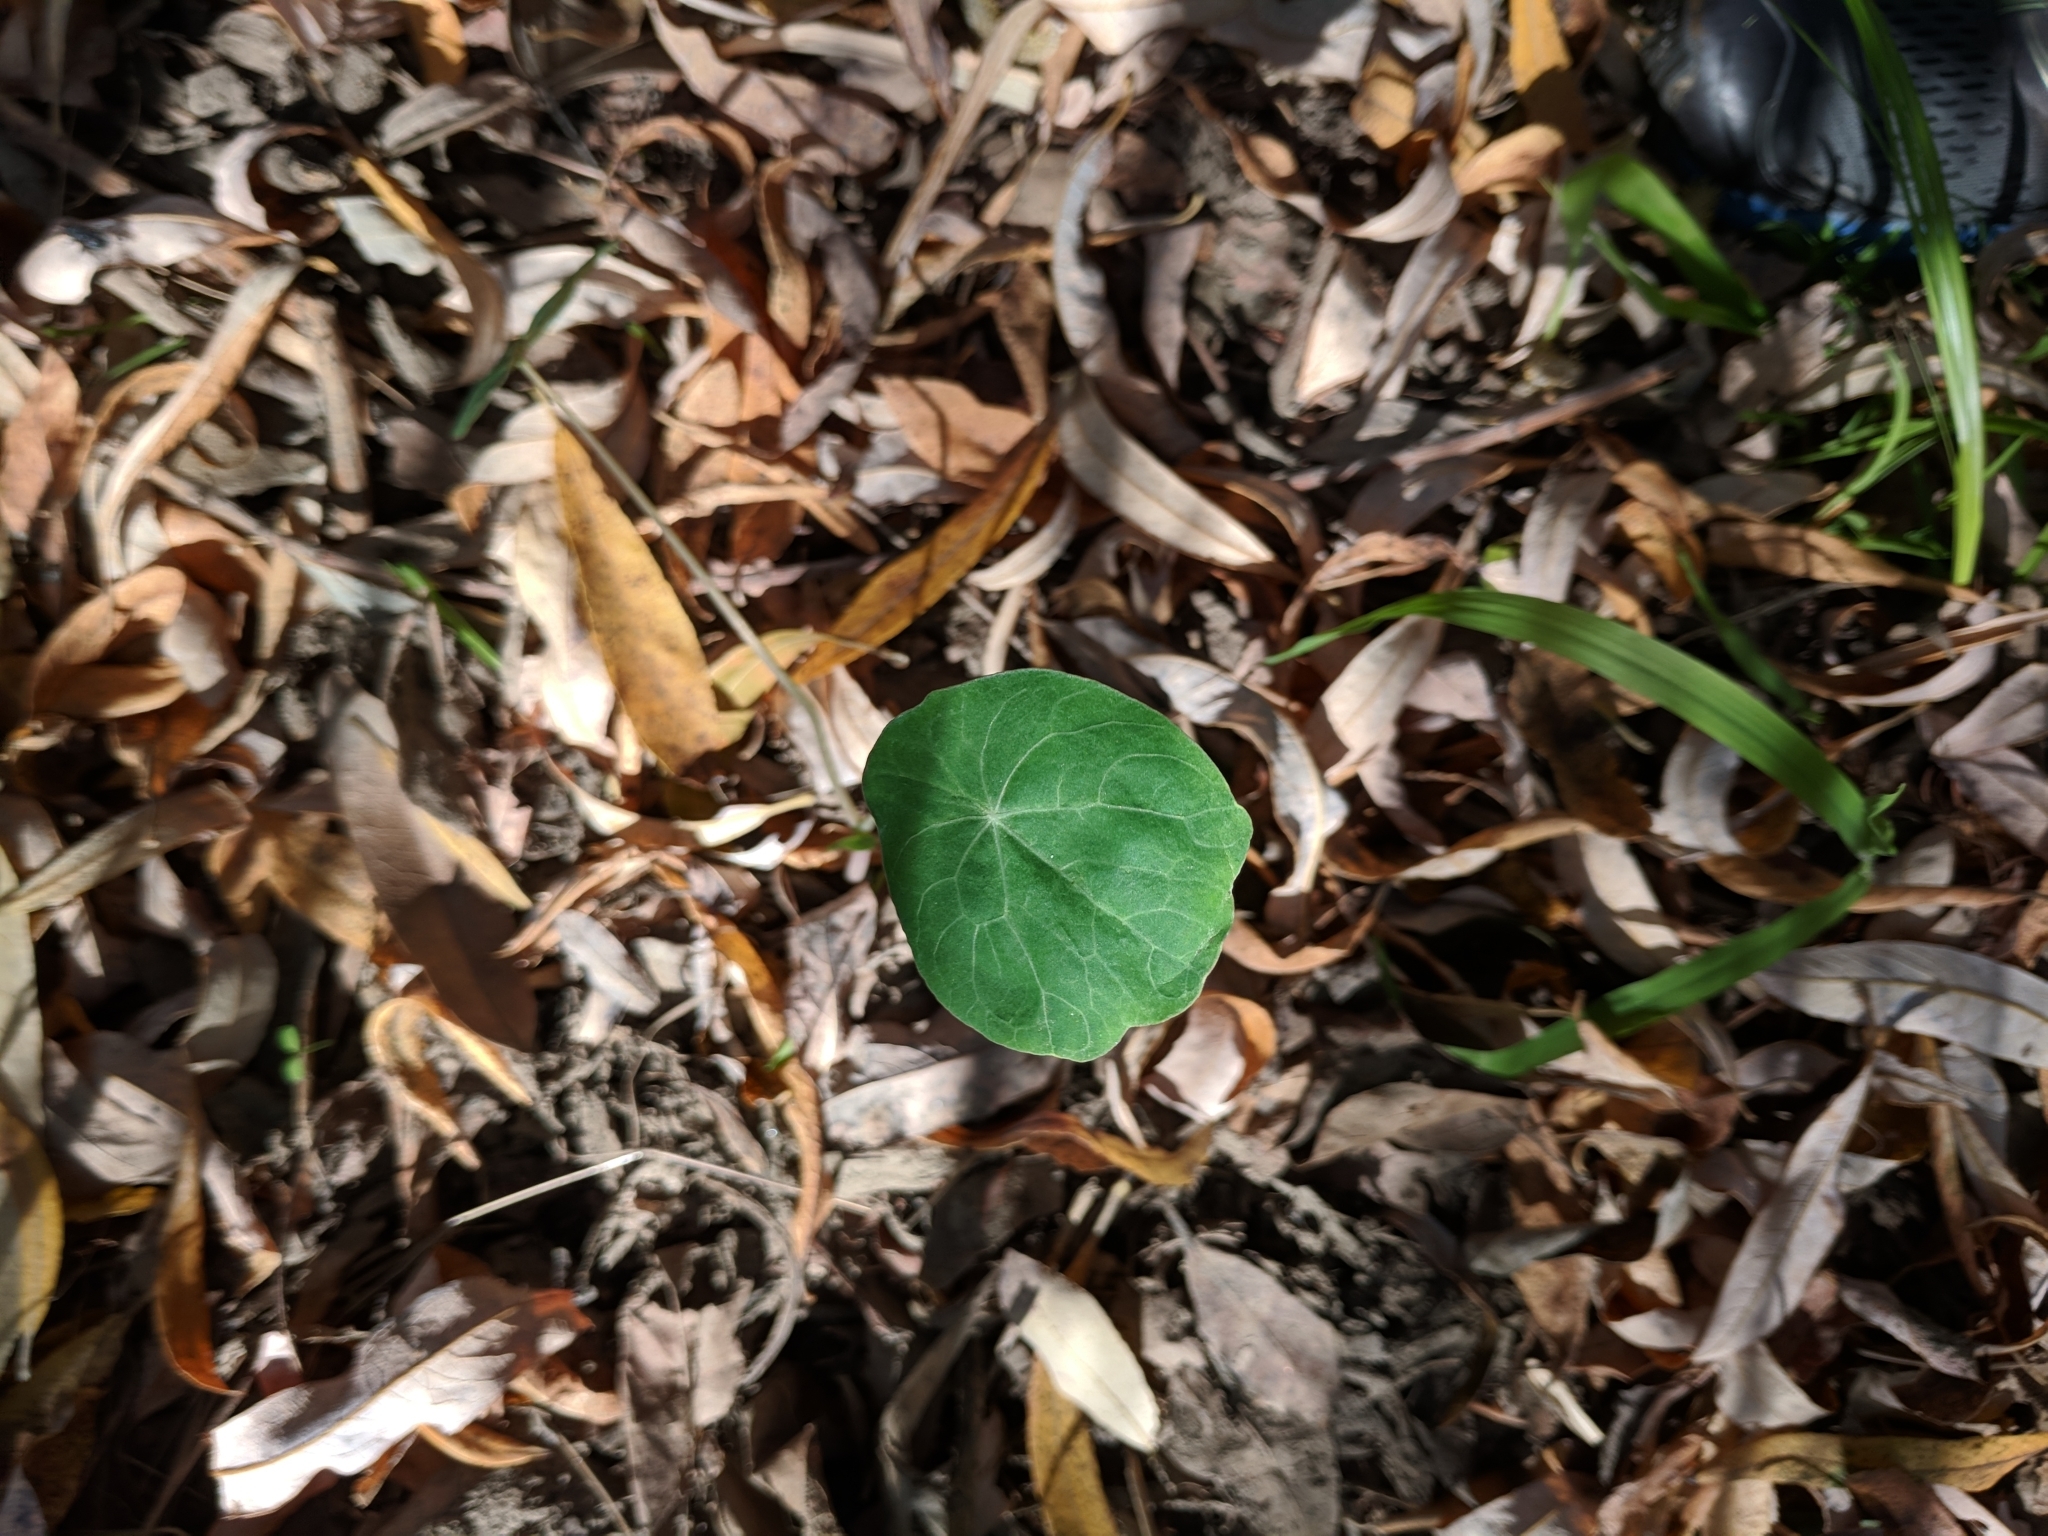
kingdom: Plantae
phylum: Tracheophyta
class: Magnoliopsida
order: Brassicales
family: Tropaeolaceae
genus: Tropaeolum
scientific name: Tropaeolum majus
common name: Nasturtium
